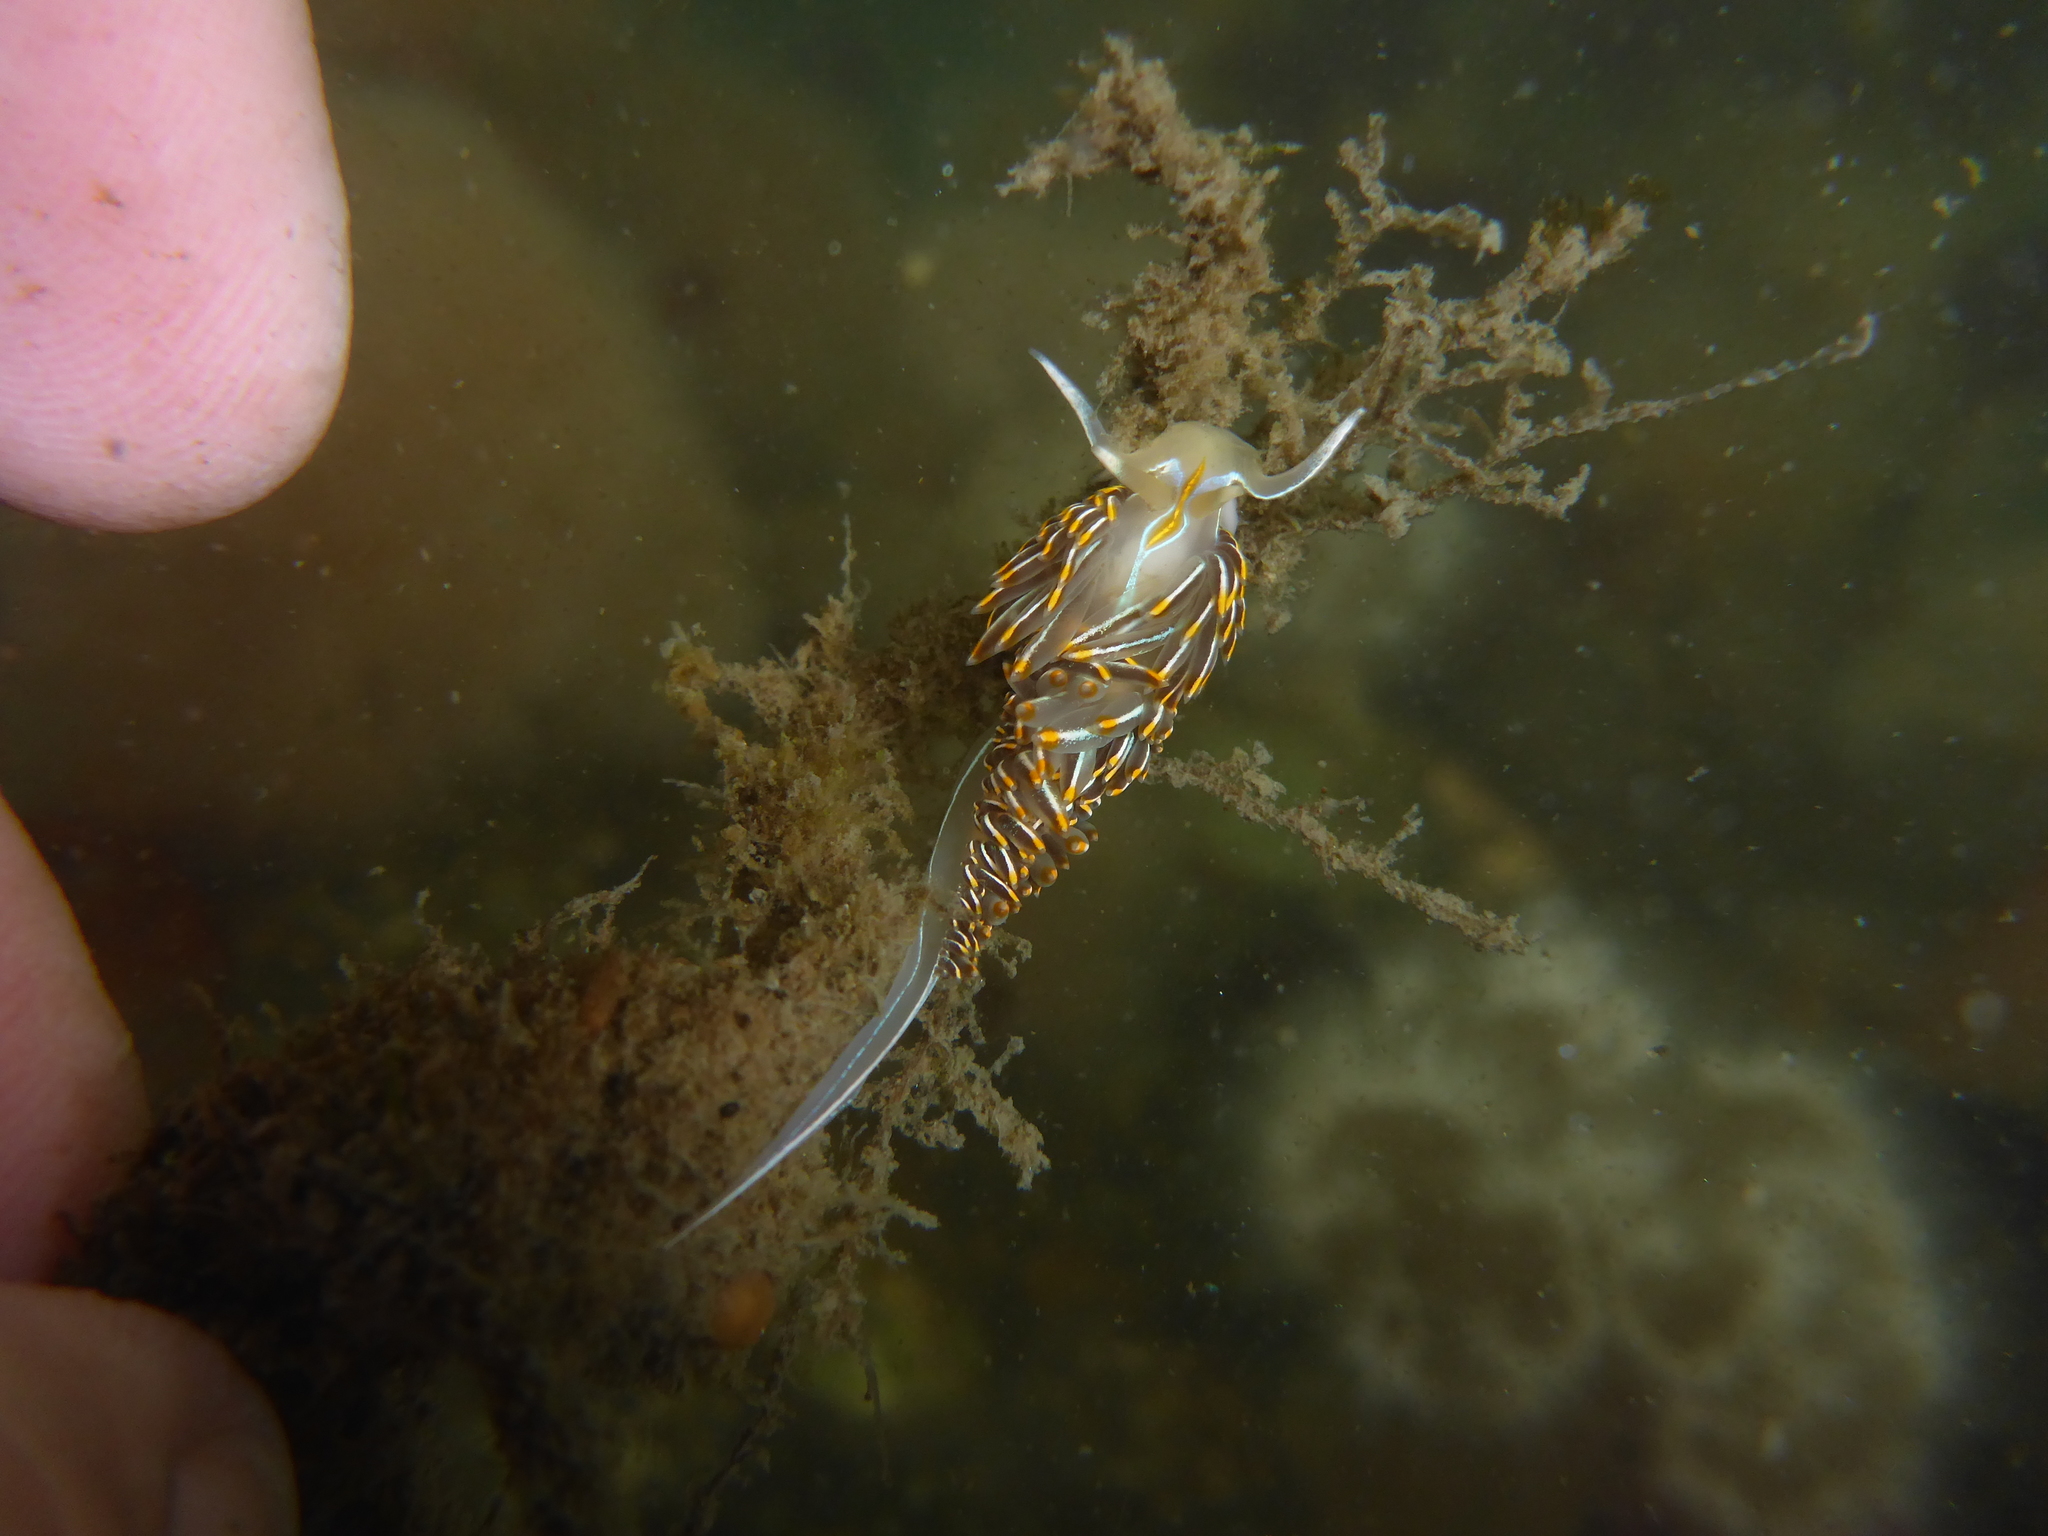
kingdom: Animalia
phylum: Mollusca
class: Gastropoda
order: Nudibranchia
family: Myrrhinidae
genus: Hermissenda
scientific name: Hermissenda crassicornis
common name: Hermissenda
